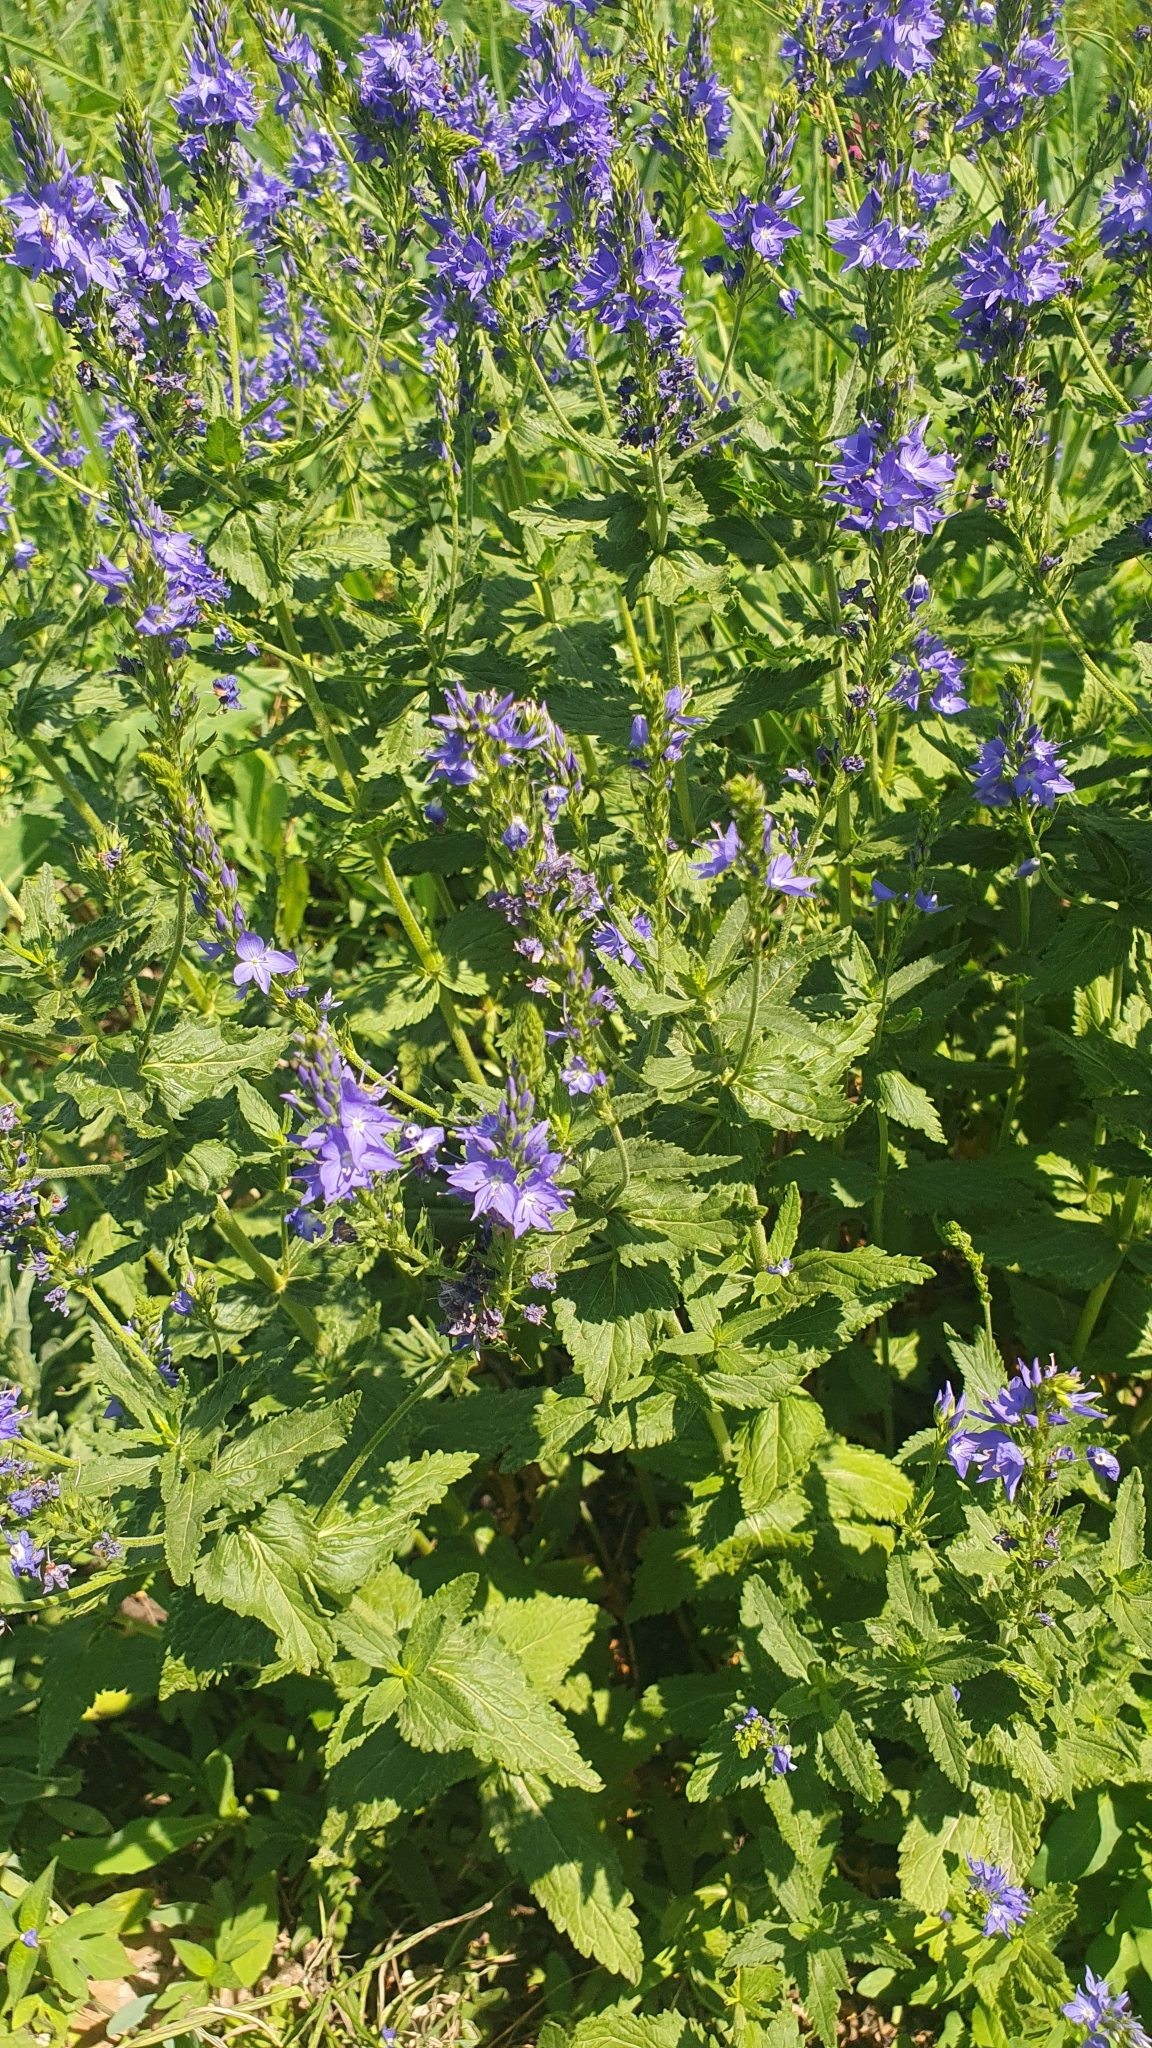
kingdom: Plantae
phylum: Tracheophyta
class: Magnoliopsida
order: Lamiales
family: Plantaginaceae
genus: Veronica
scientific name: Veronica teucrium
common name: Large speedwell
